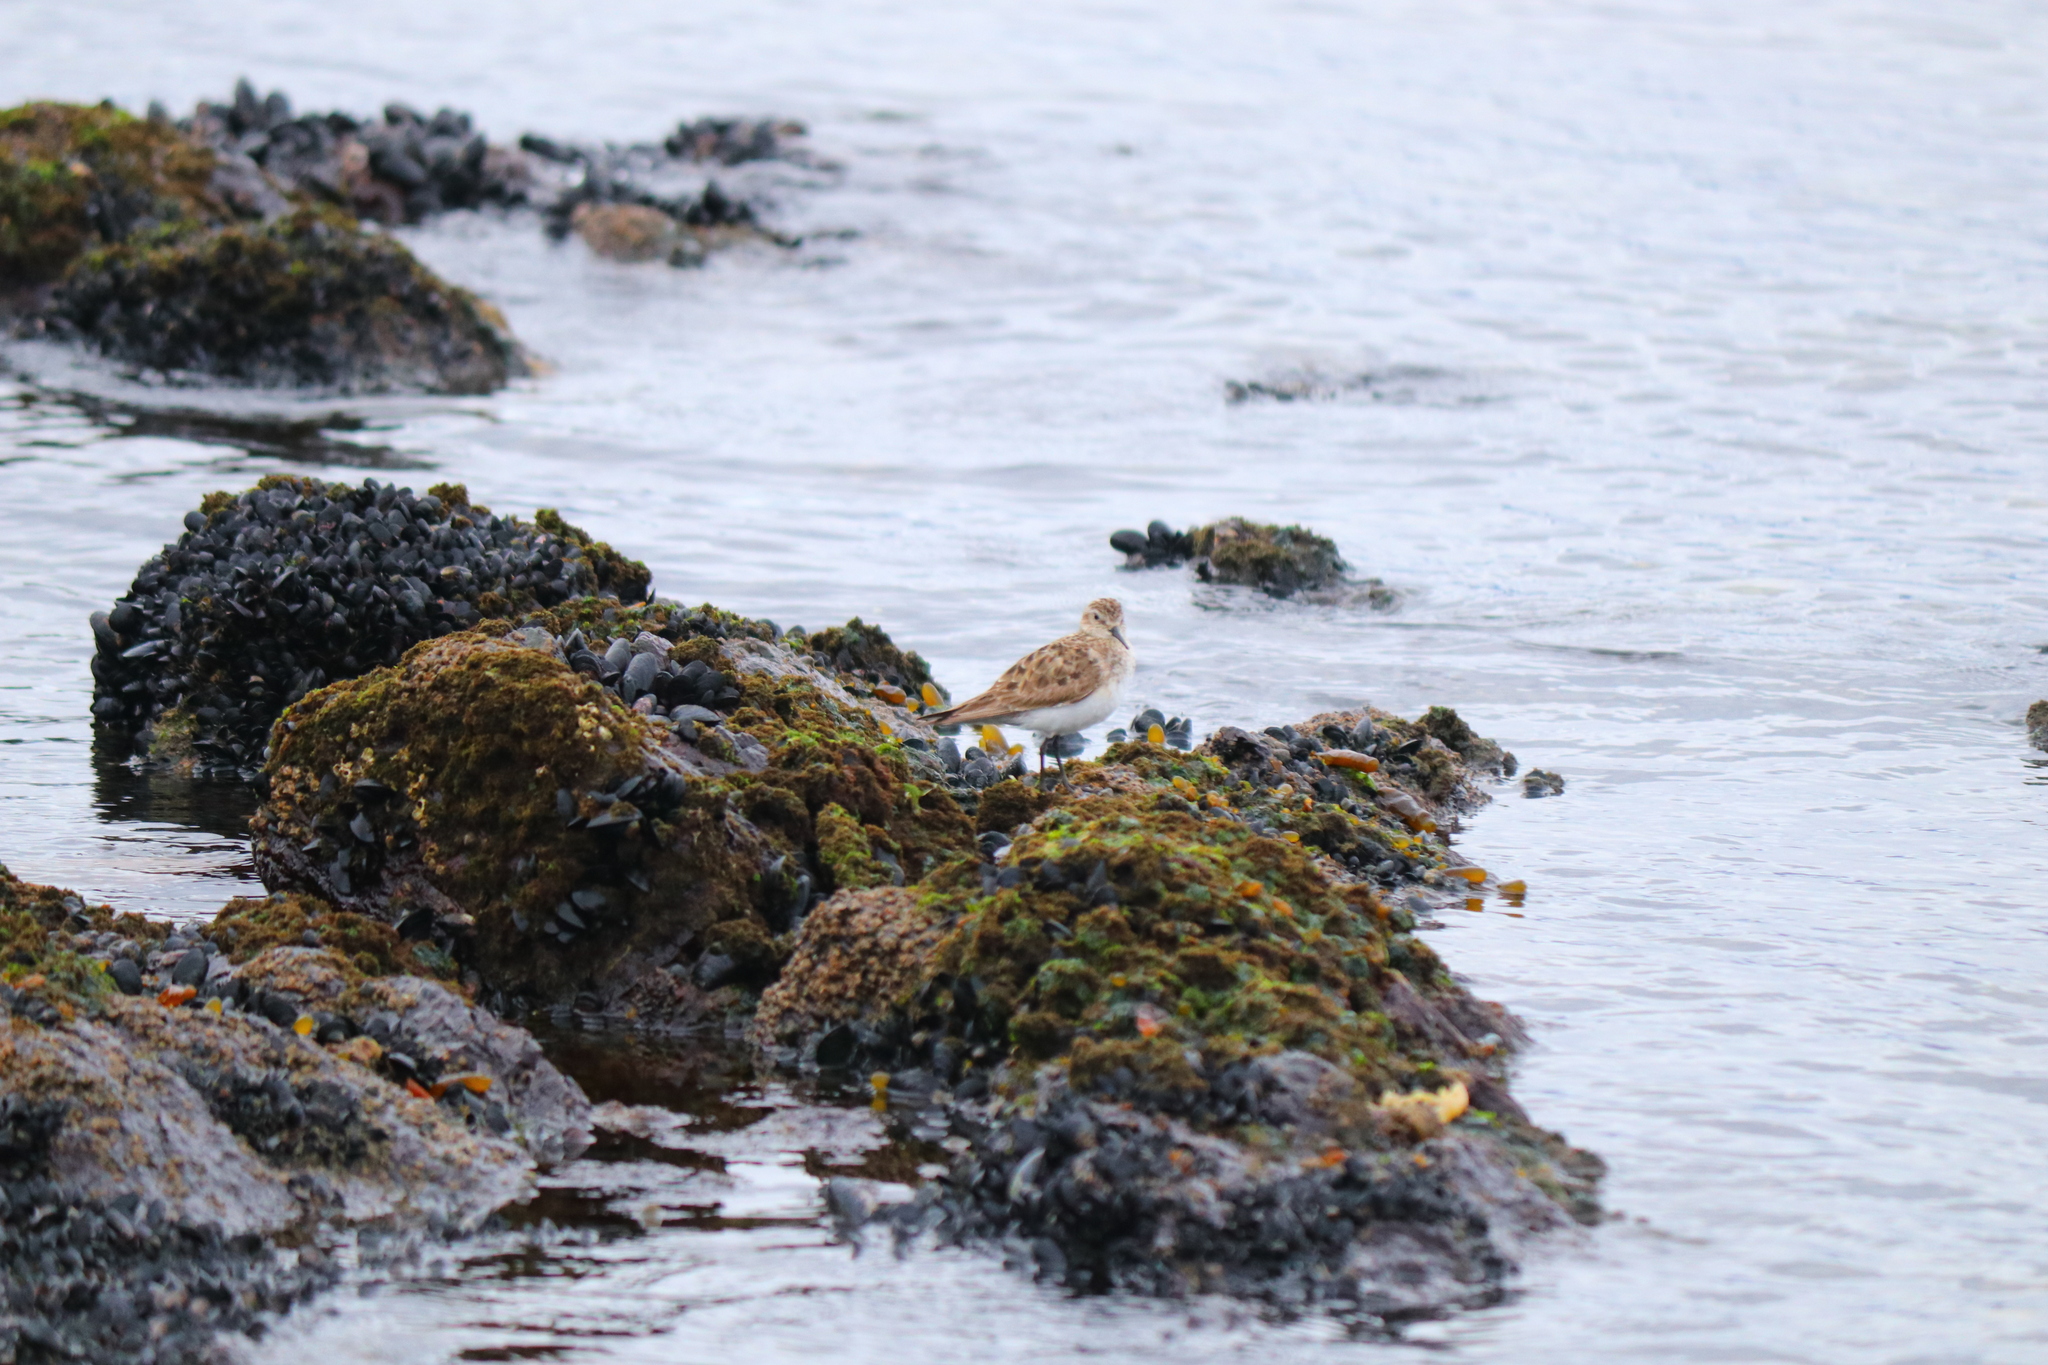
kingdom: Animalia
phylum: Chordata
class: Aves
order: Charadriiformes
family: Scolopacidae
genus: Calidris
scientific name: Calidris bairdii
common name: Baird's sandpiper
